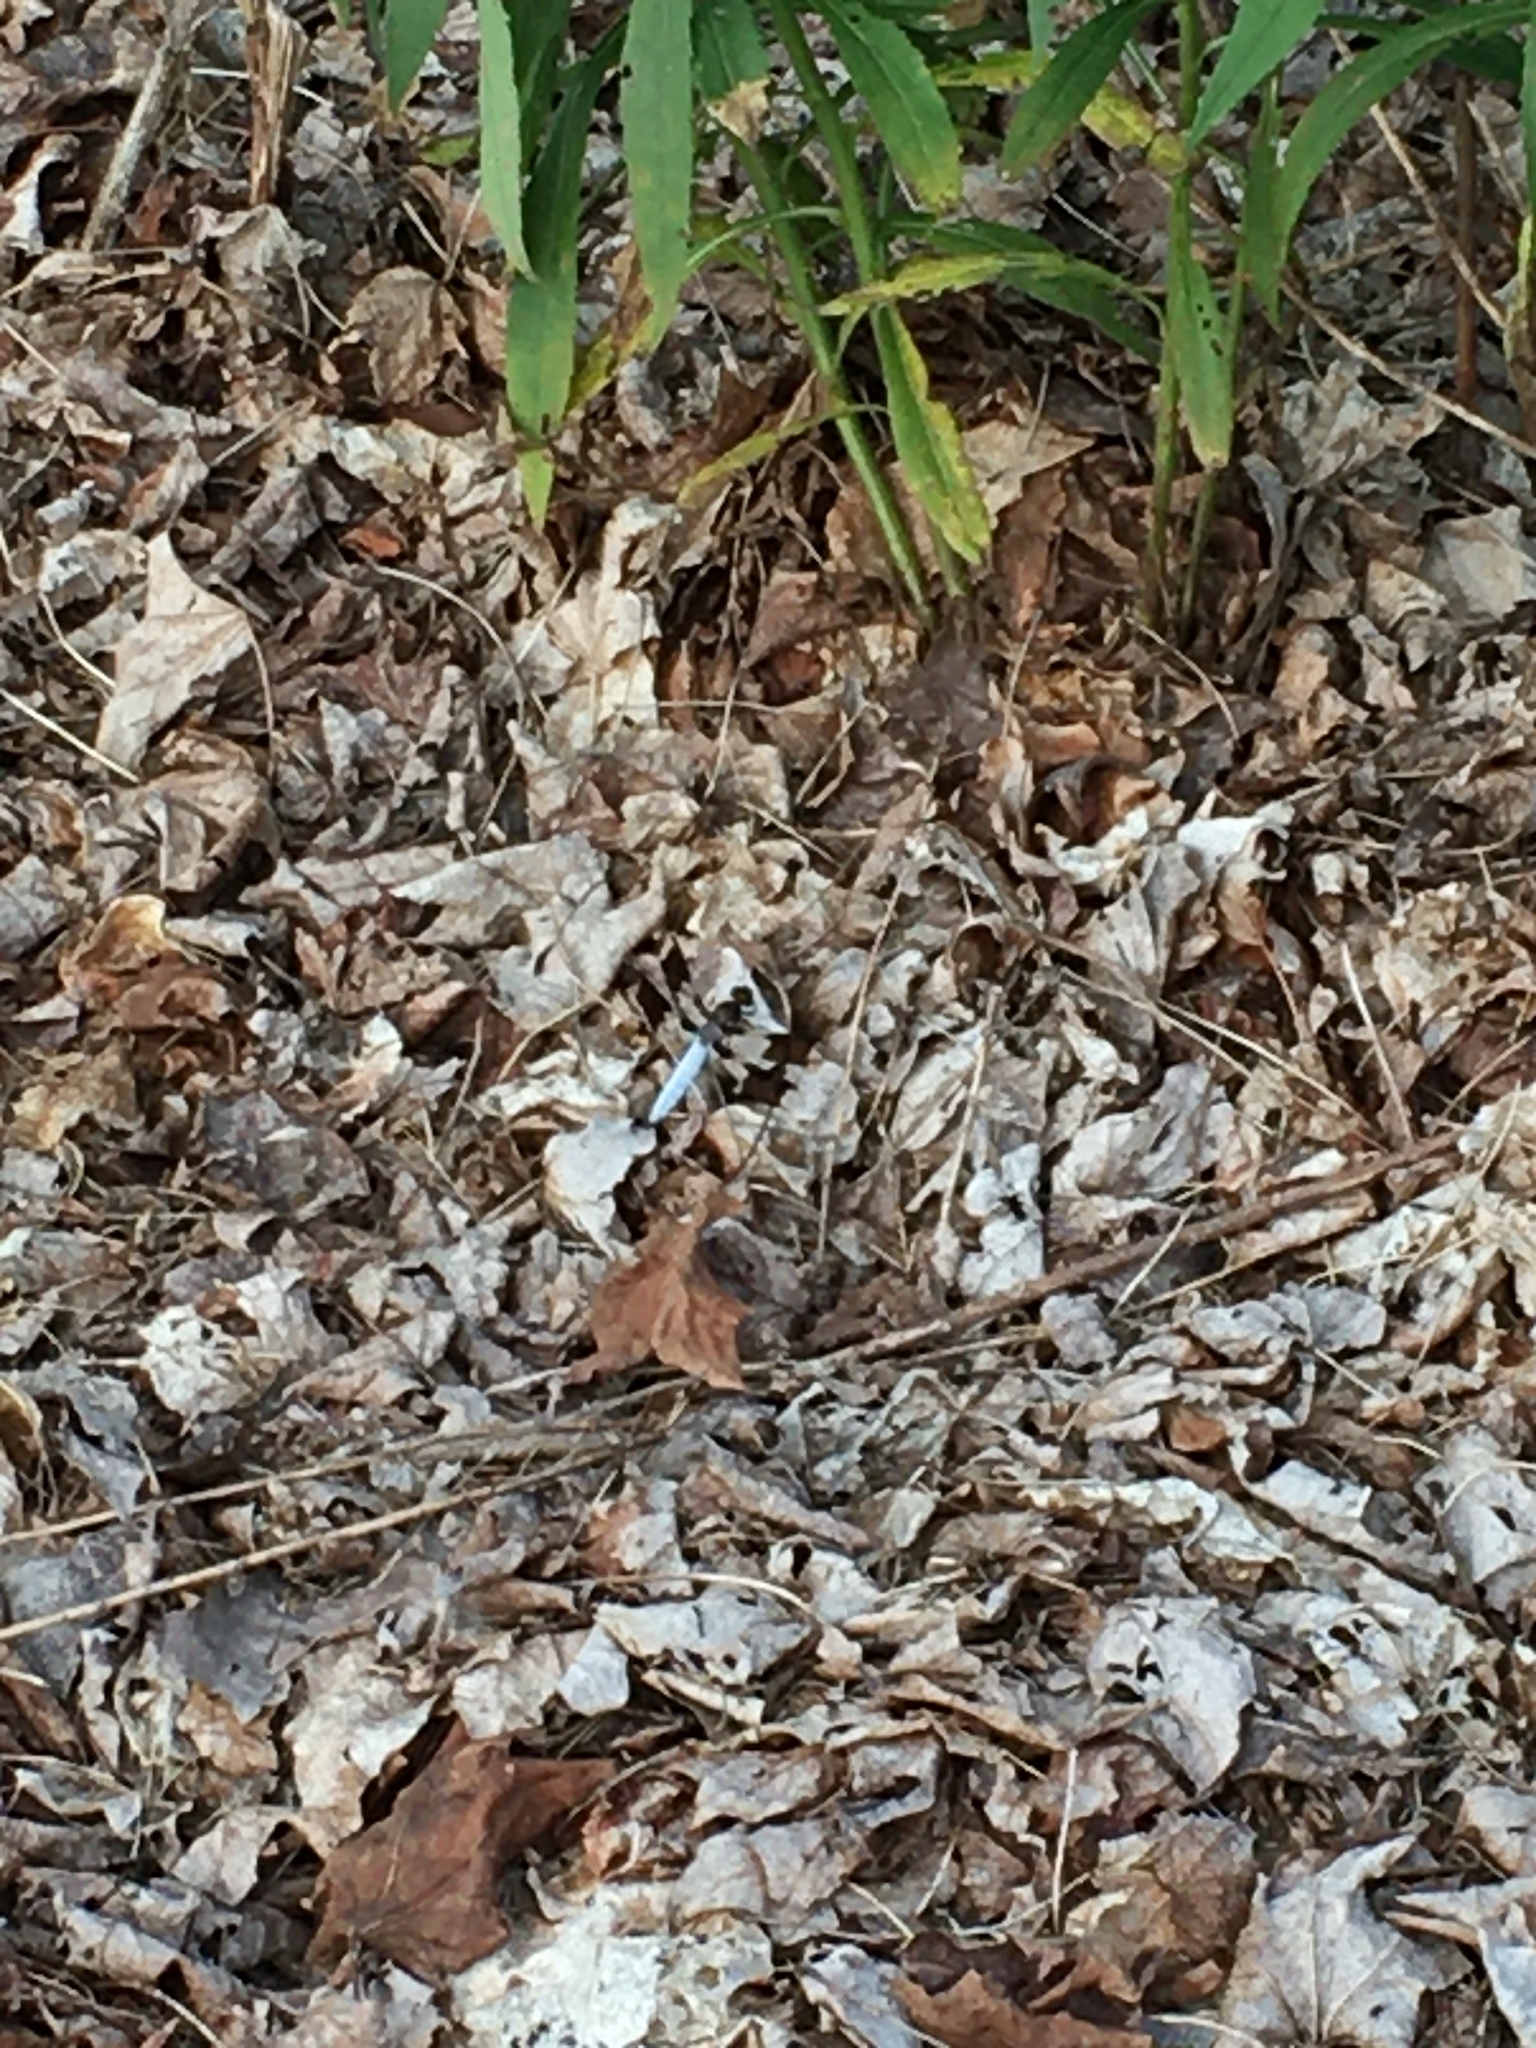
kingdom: Animalia
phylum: Arthropoda
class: Insecta
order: Odonata
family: Libellulidae
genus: Plathemis
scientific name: Plathemis lydia
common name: Common whitetail
